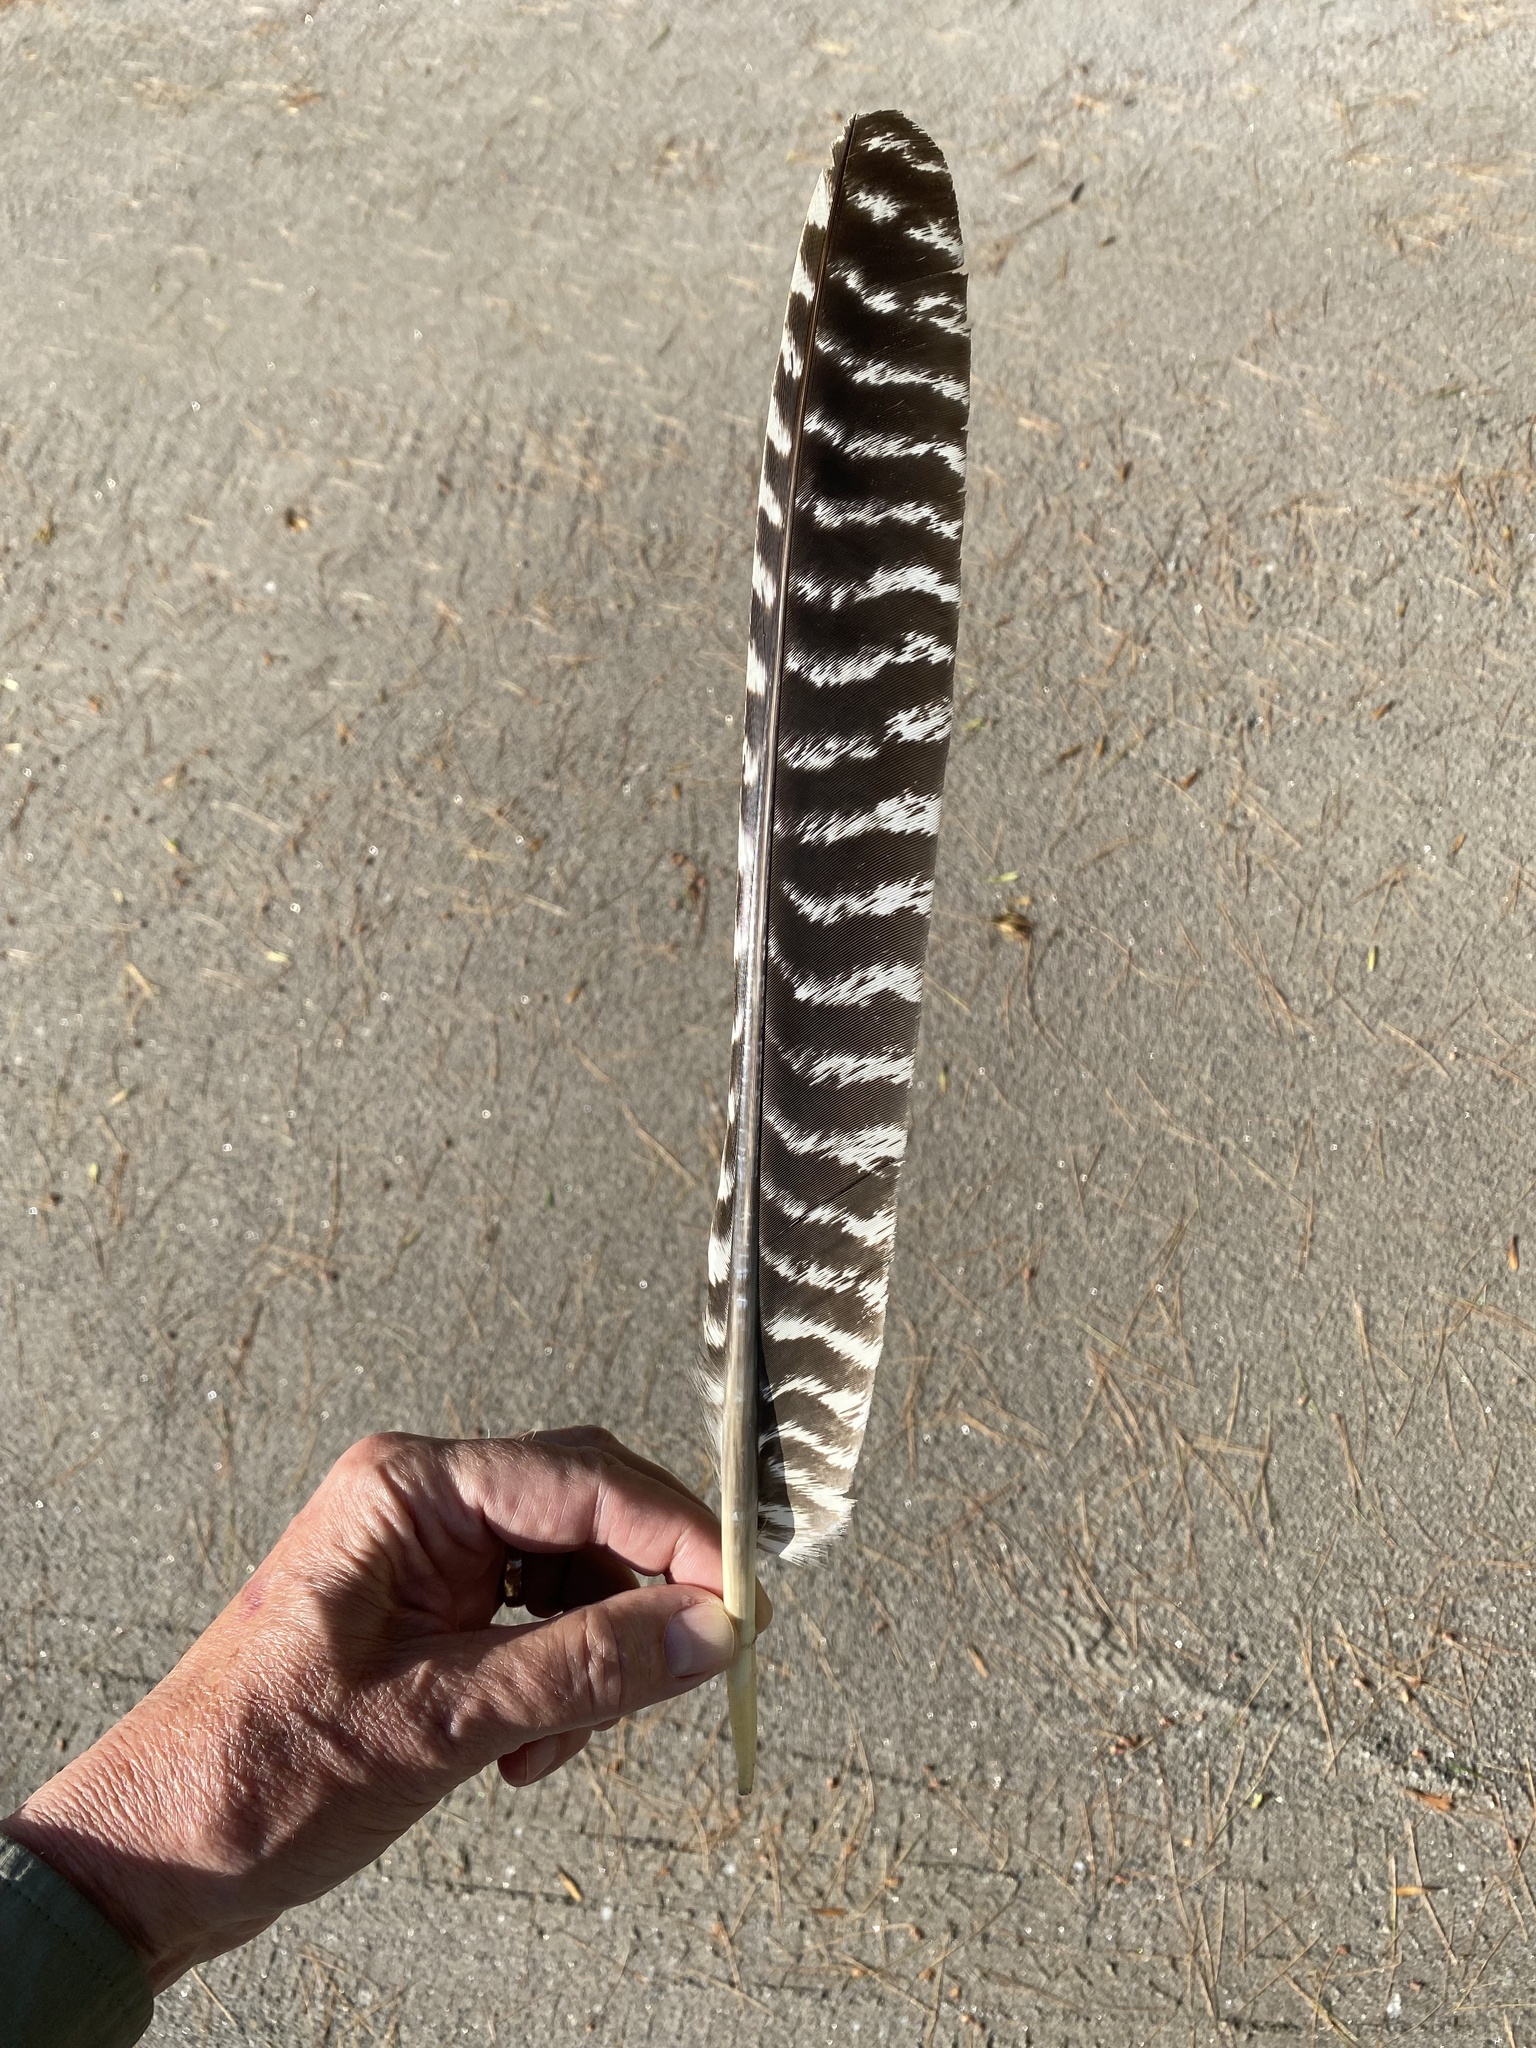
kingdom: Animalia
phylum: Chordata
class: Aves
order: Galliformes
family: Phasianidae
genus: Meleagris
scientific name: Meleagris gallopavo
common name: Wild turkey
